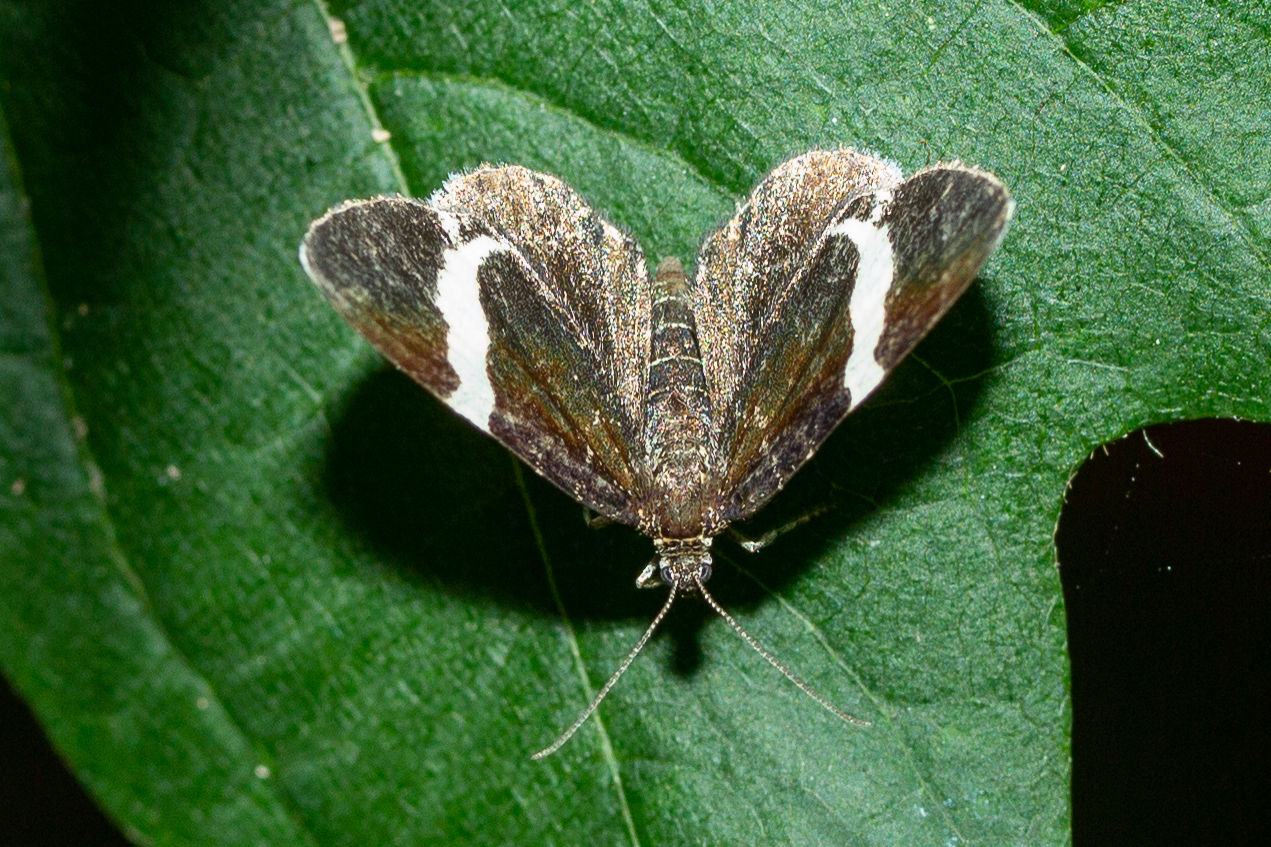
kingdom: Animalia
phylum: Arthropoda
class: Insecta
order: Lepidoptera
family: Geometridae
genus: Trichodezia
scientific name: Trichodezia albovittata
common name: White striped black
